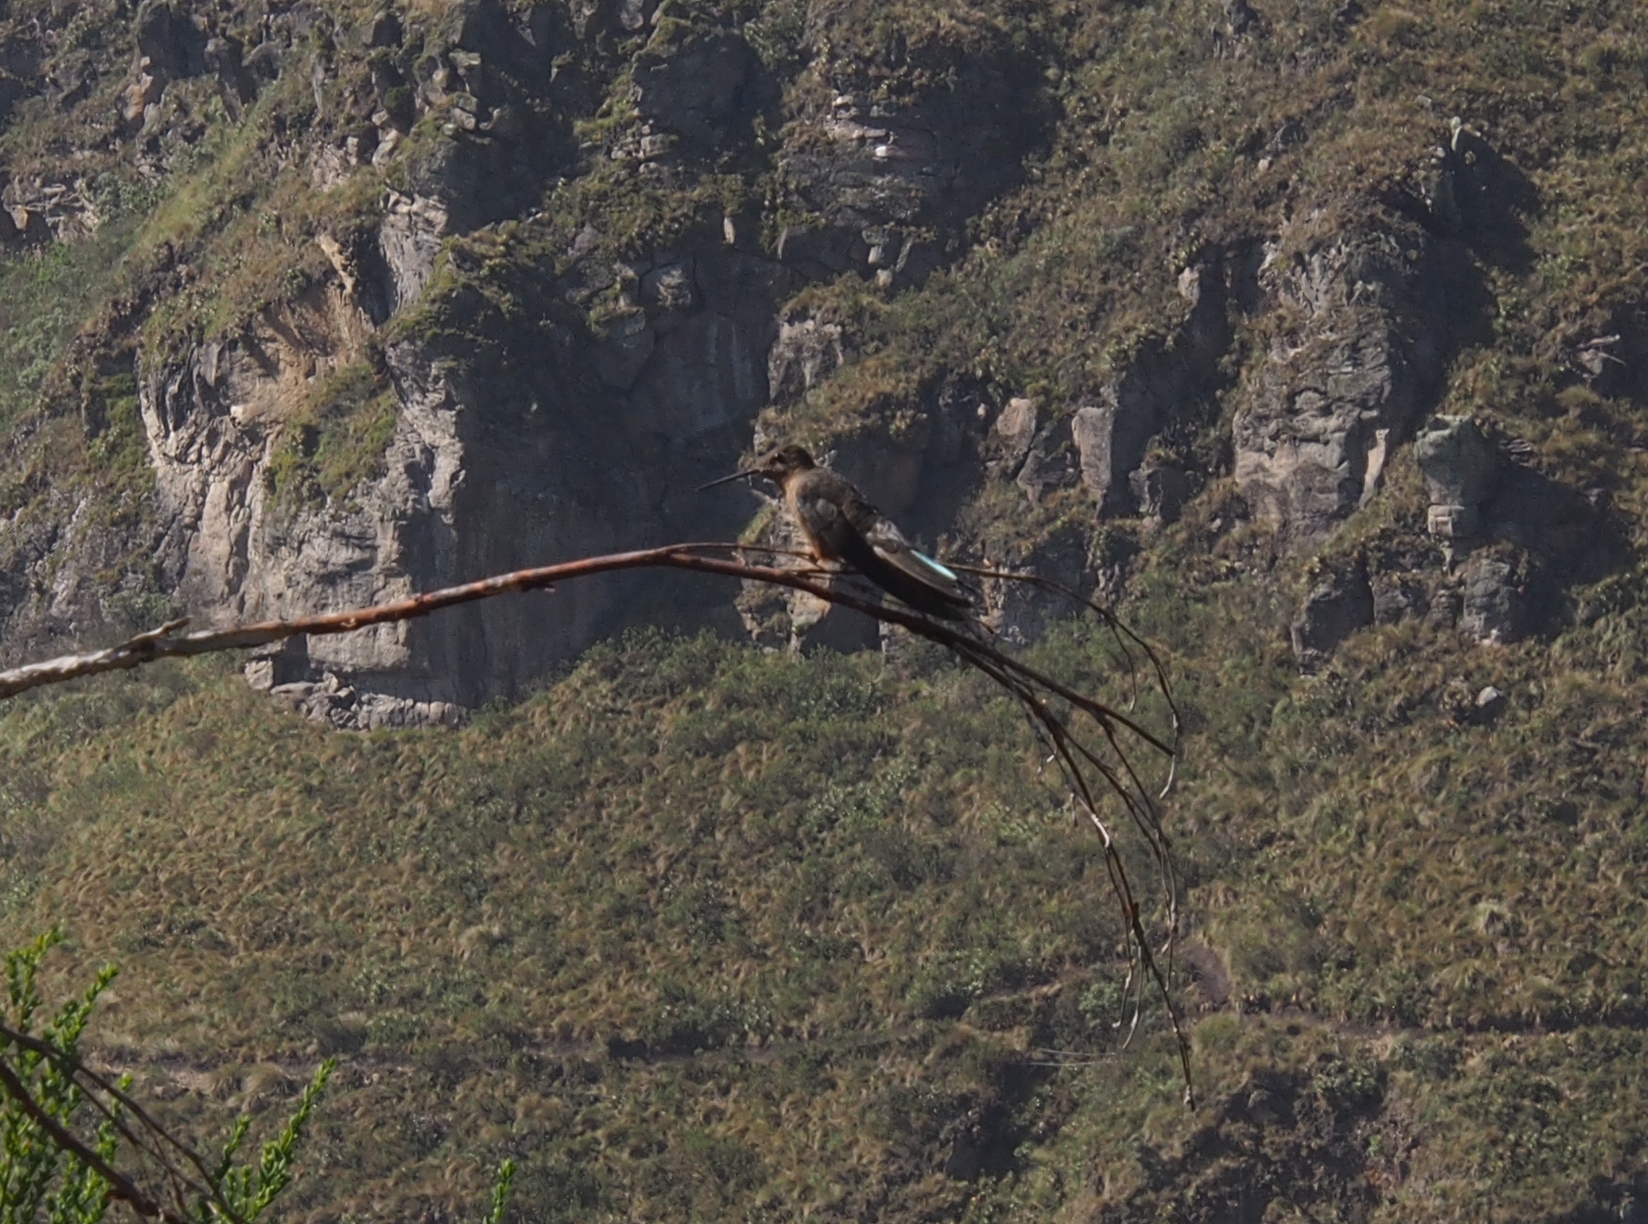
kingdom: Animalia
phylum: Chordata
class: Aves
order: Apodiformes
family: Trochilidae
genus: Patagona
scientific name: Patagona gigas
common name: Giant hummingbird
